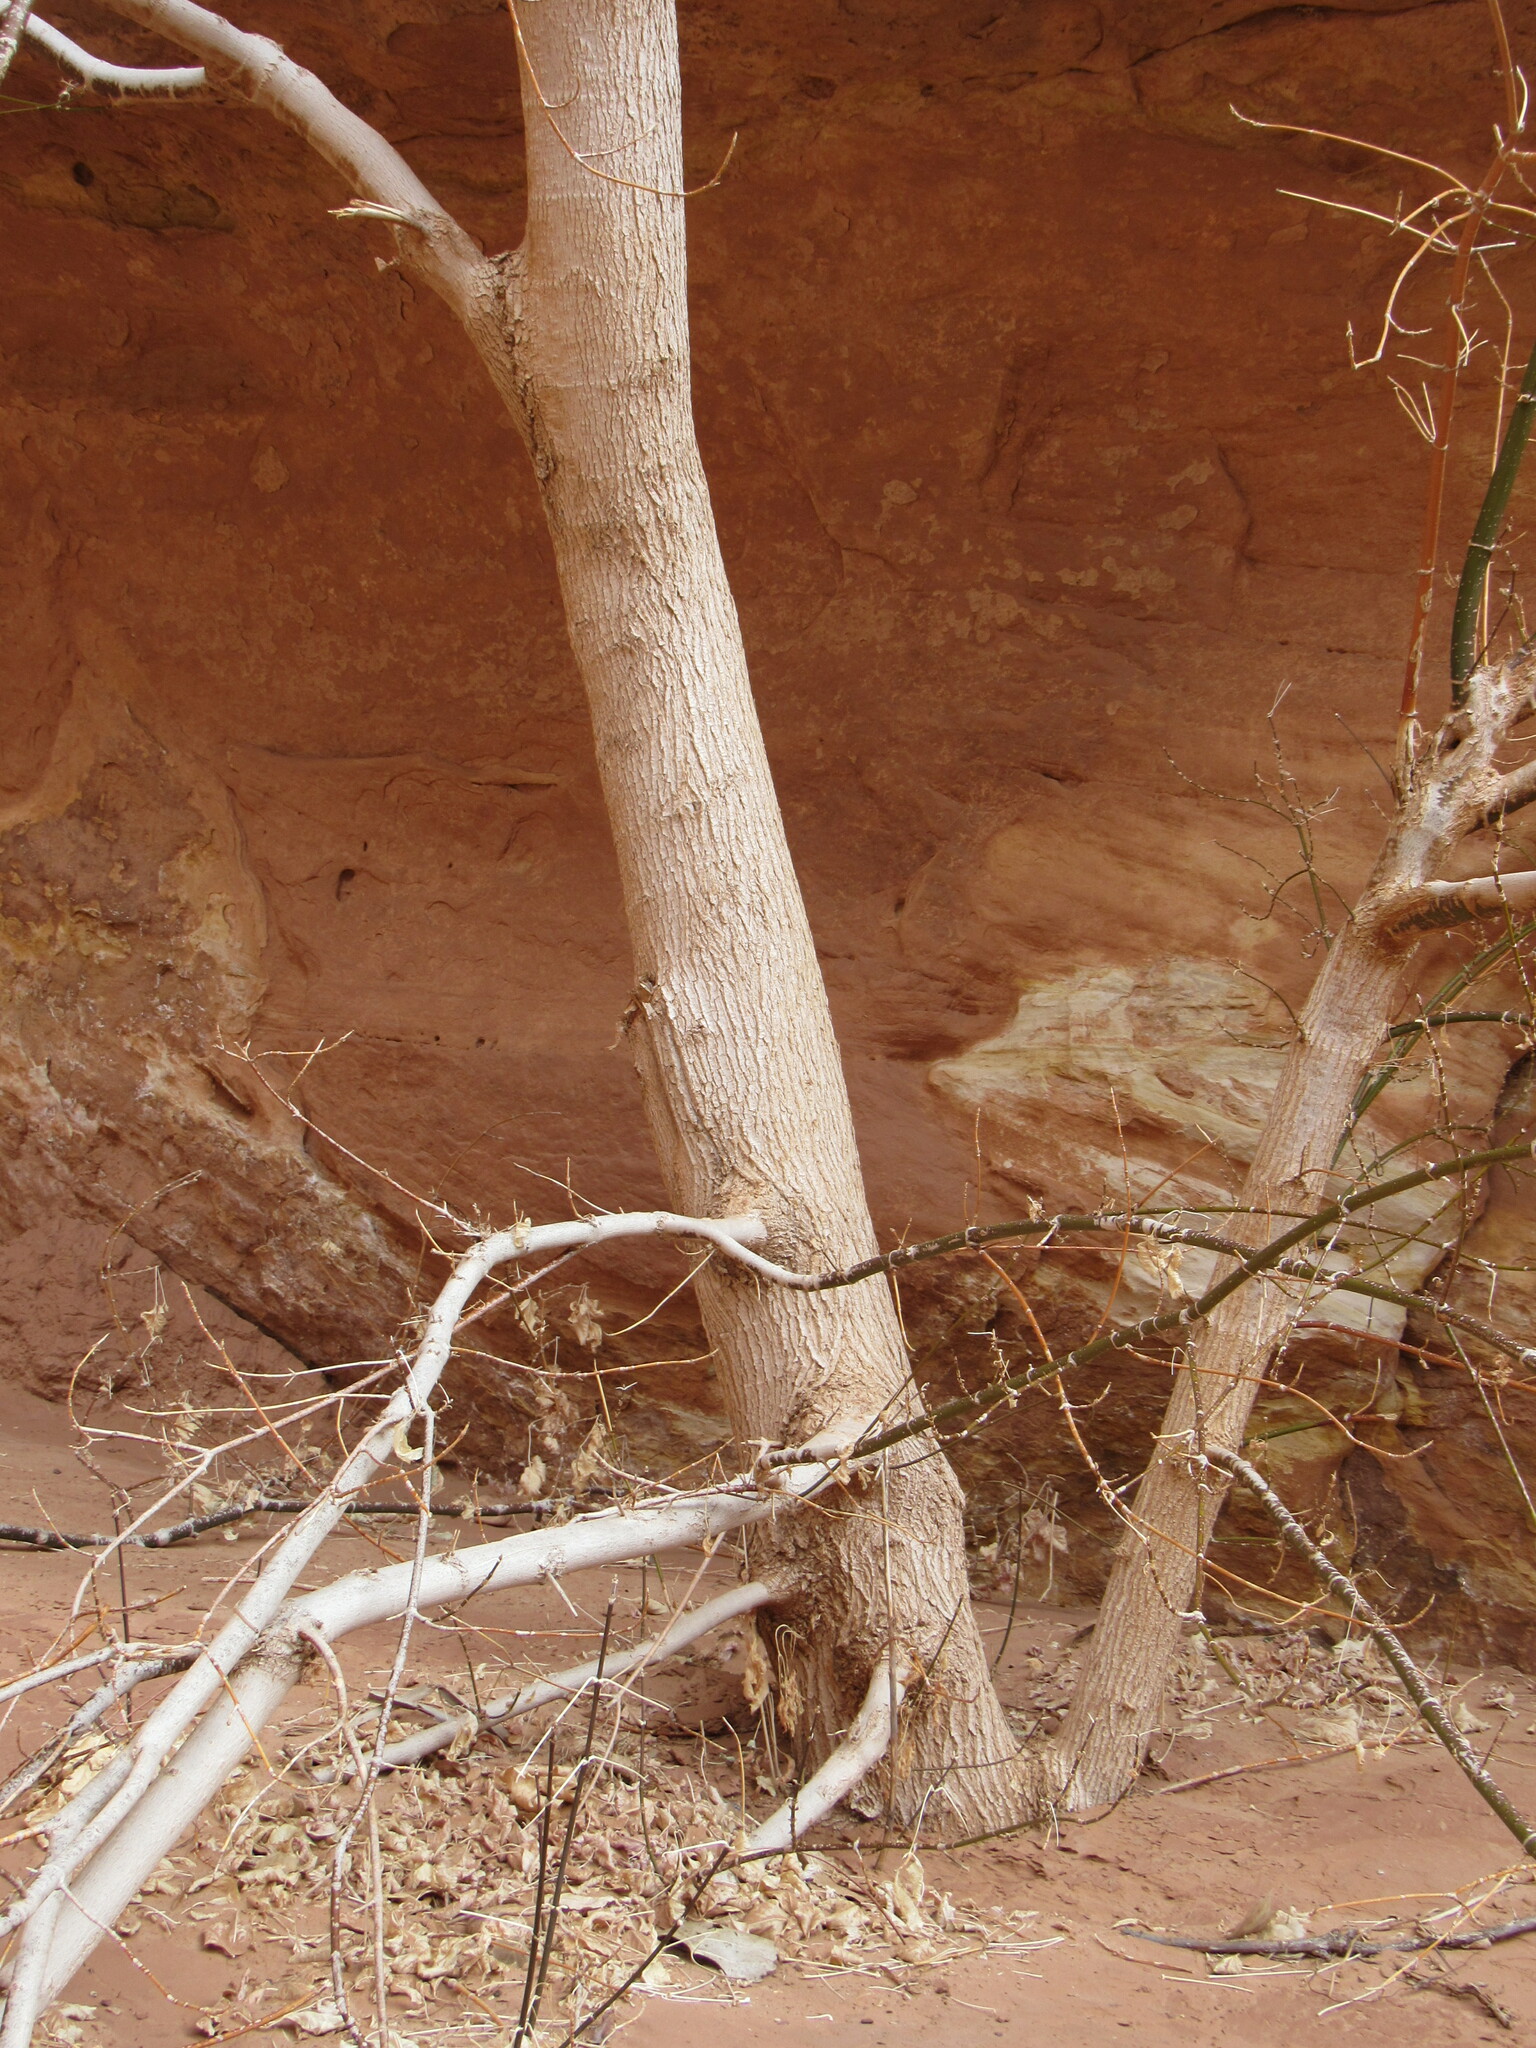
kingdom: Plantae
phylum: Tracheophyta
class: Magnoliopsida
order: Sapindales
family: Sapindaceae
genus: Acer
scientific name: Acer negundo
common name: Ashleaf maple
